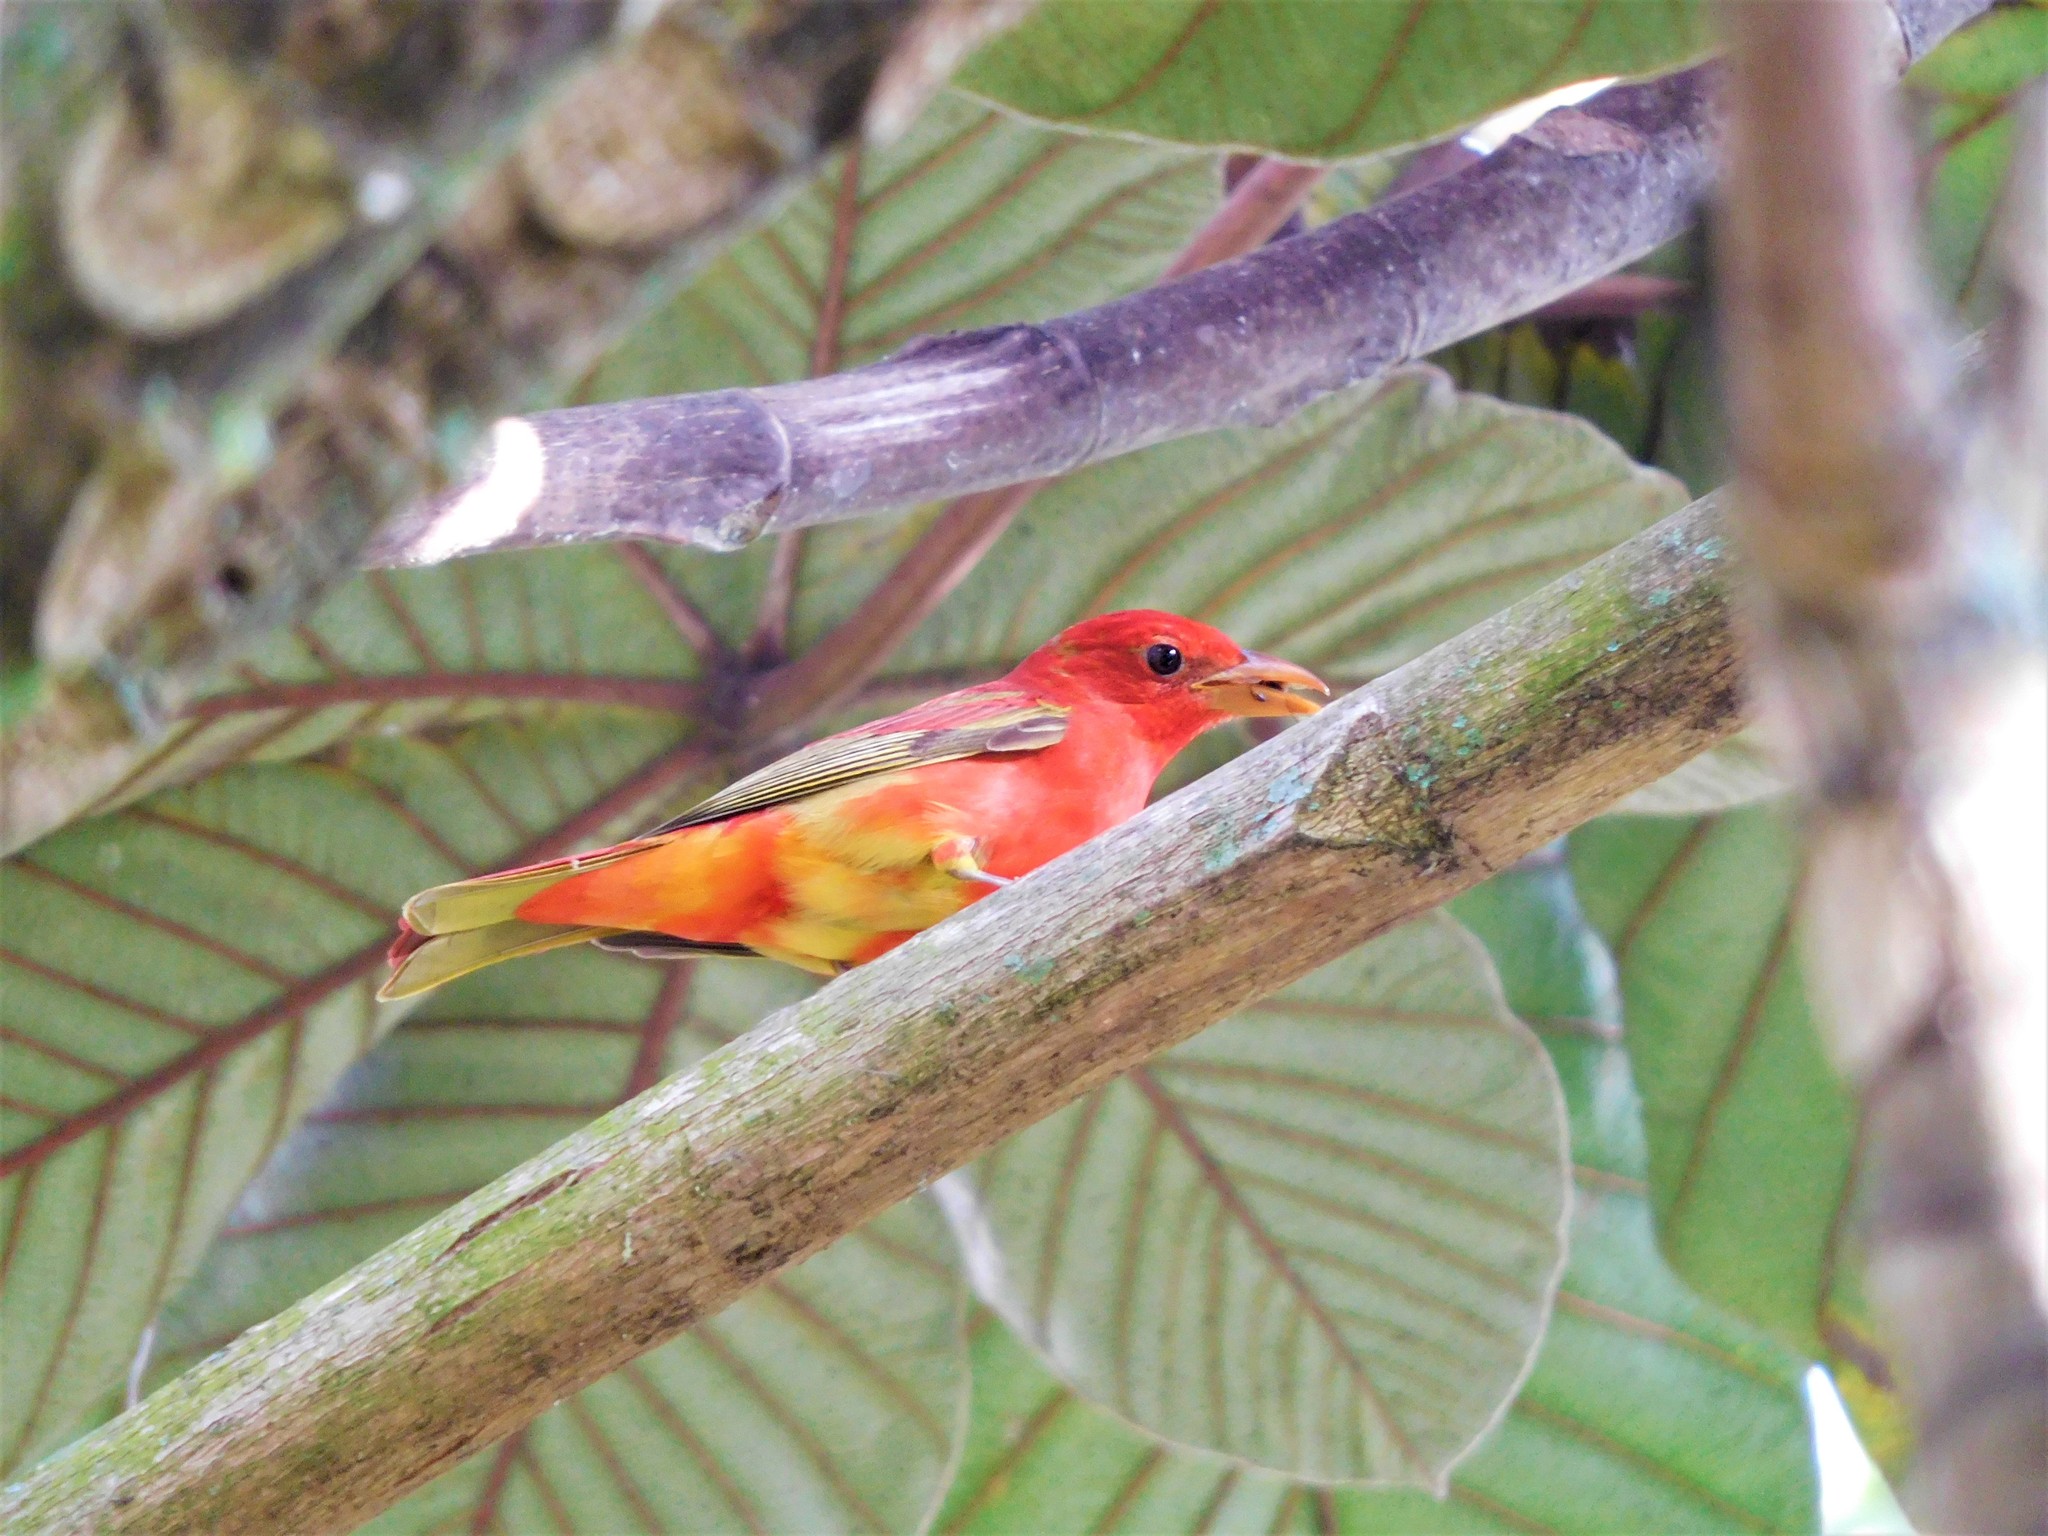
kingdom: Animalia
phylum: Chordata
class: Aves
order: Passeriformes
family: Cardinalidae
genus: Piranga
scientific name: Piranga rubra
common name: Summer tanager
